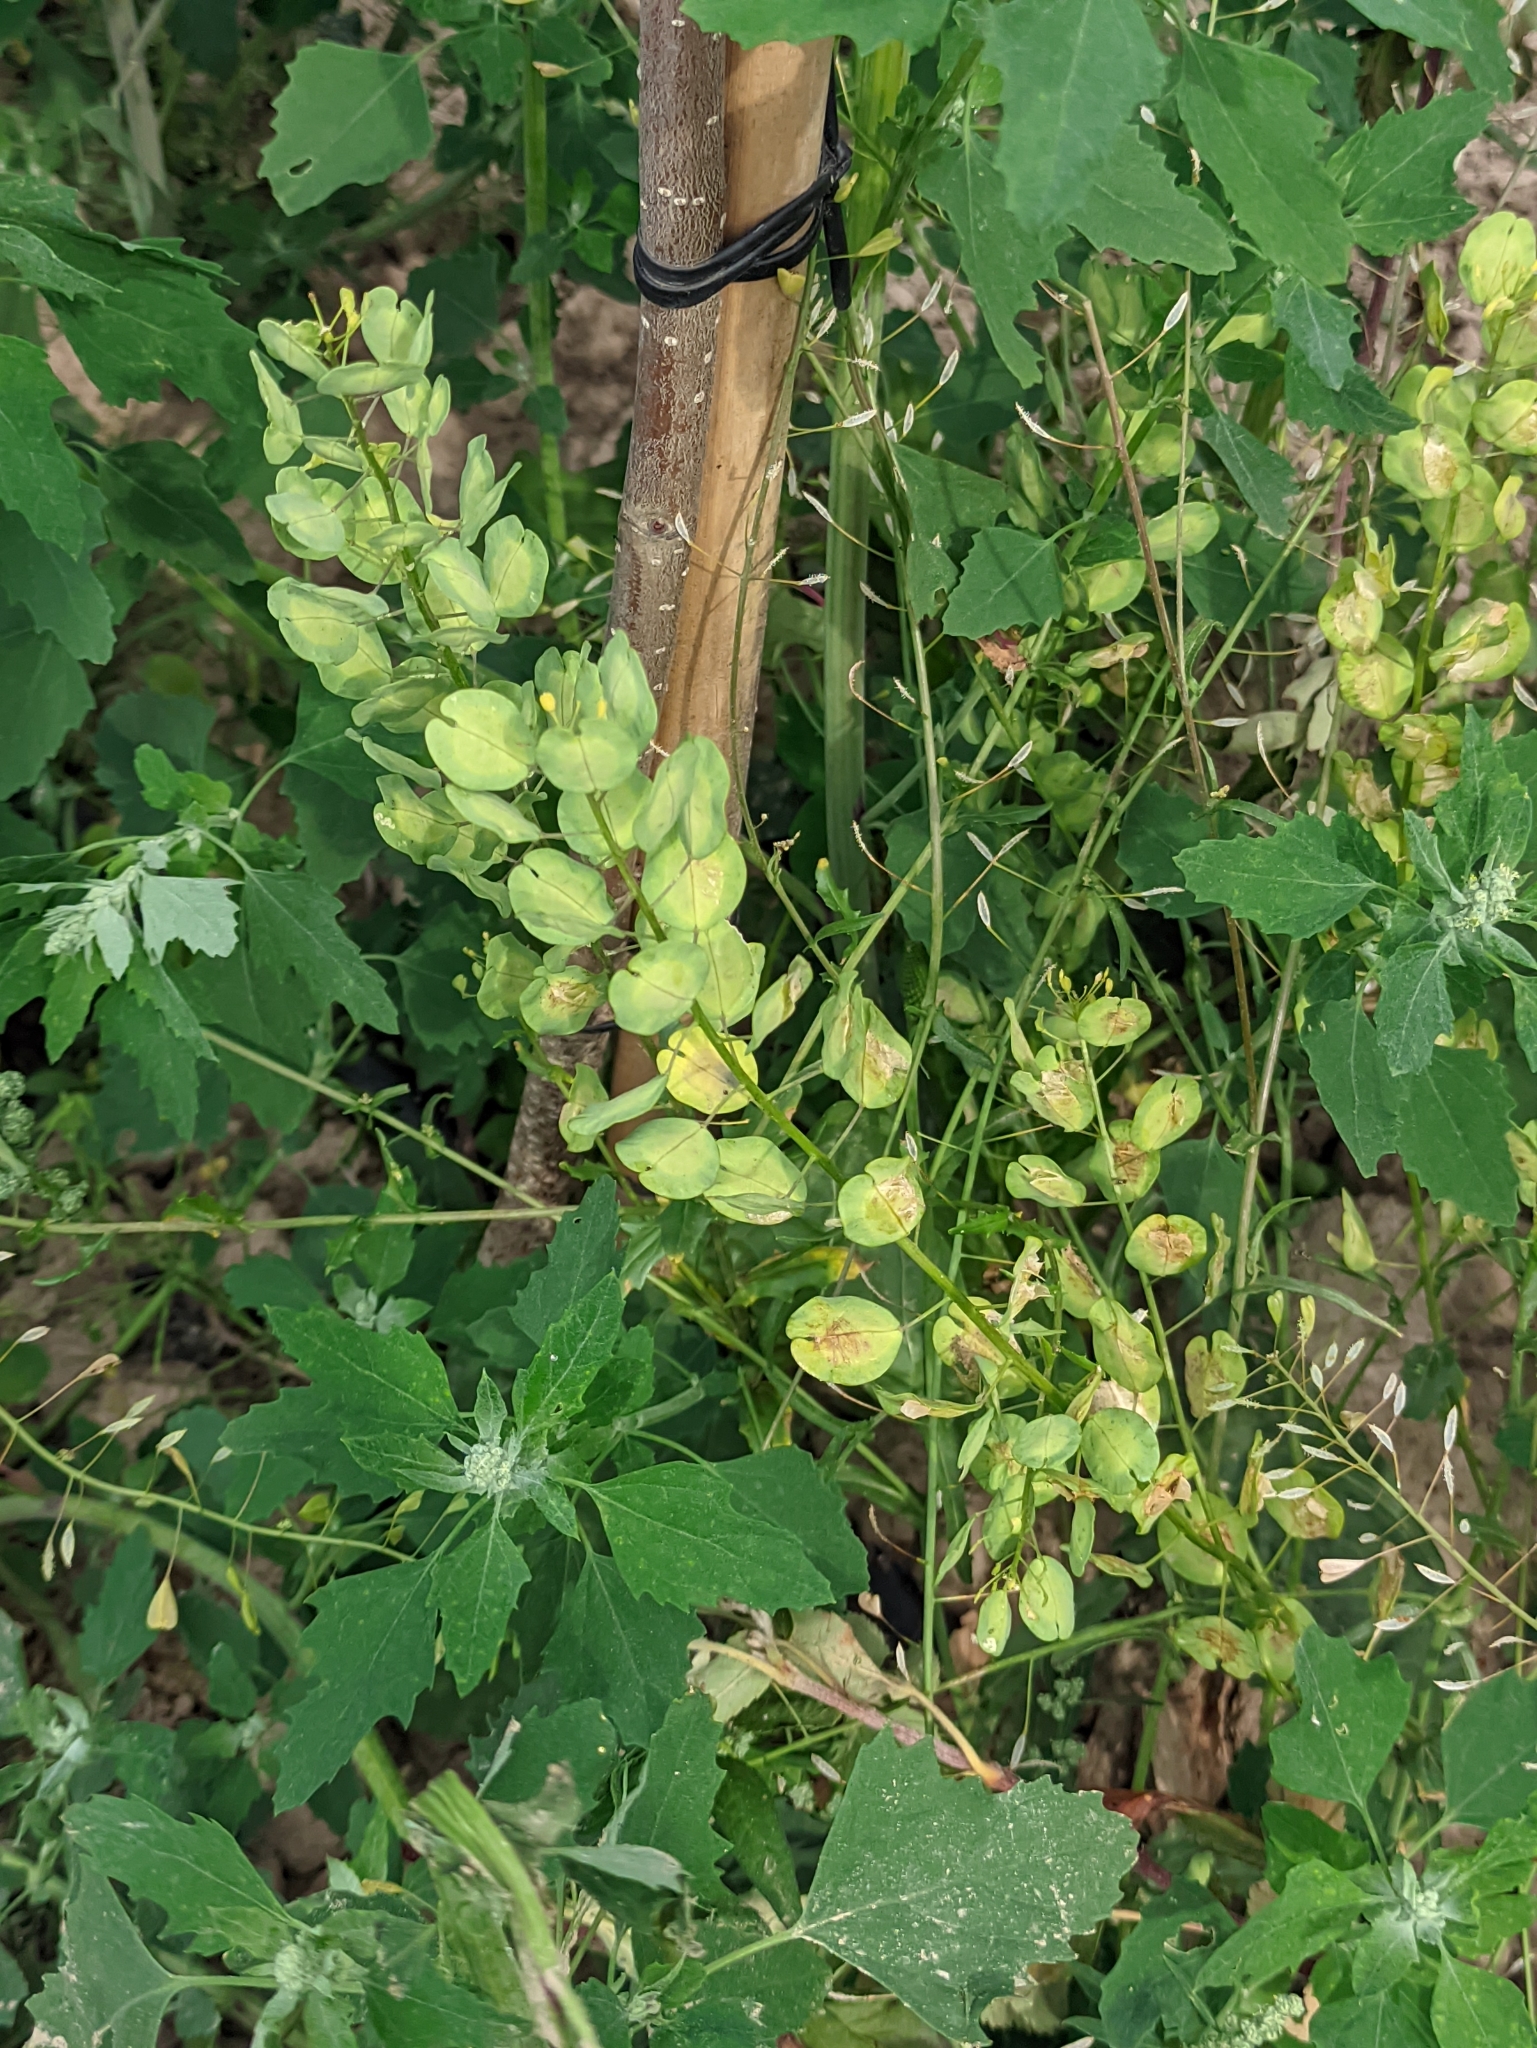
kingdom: Plantae
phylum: Tracheophyta
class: Magnoliopsida
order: Brassicales
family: Brassicaceae
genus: Thlaspi
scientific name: Thlaspi arvense
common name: Field pennycress
